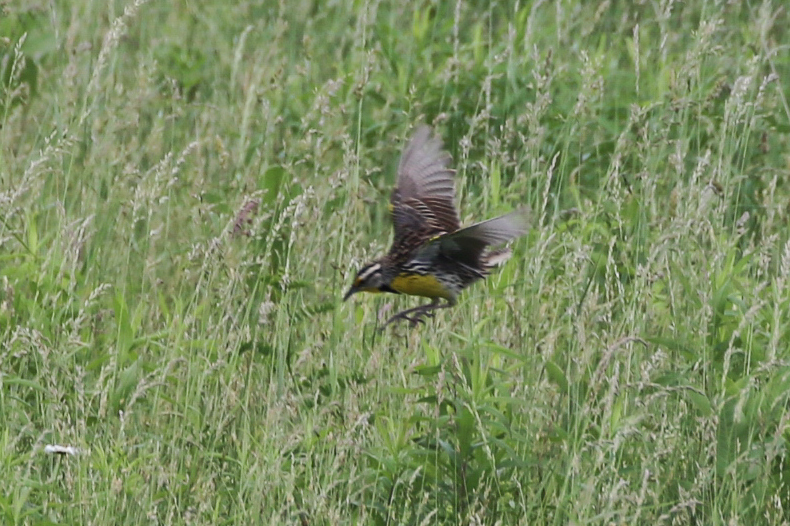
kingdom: Animalia
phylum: Chordata
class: Aves
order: Passeriformes
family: Icteridae
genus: Sturnella
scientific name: Sturnella magna
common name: Eastern meadowlark
